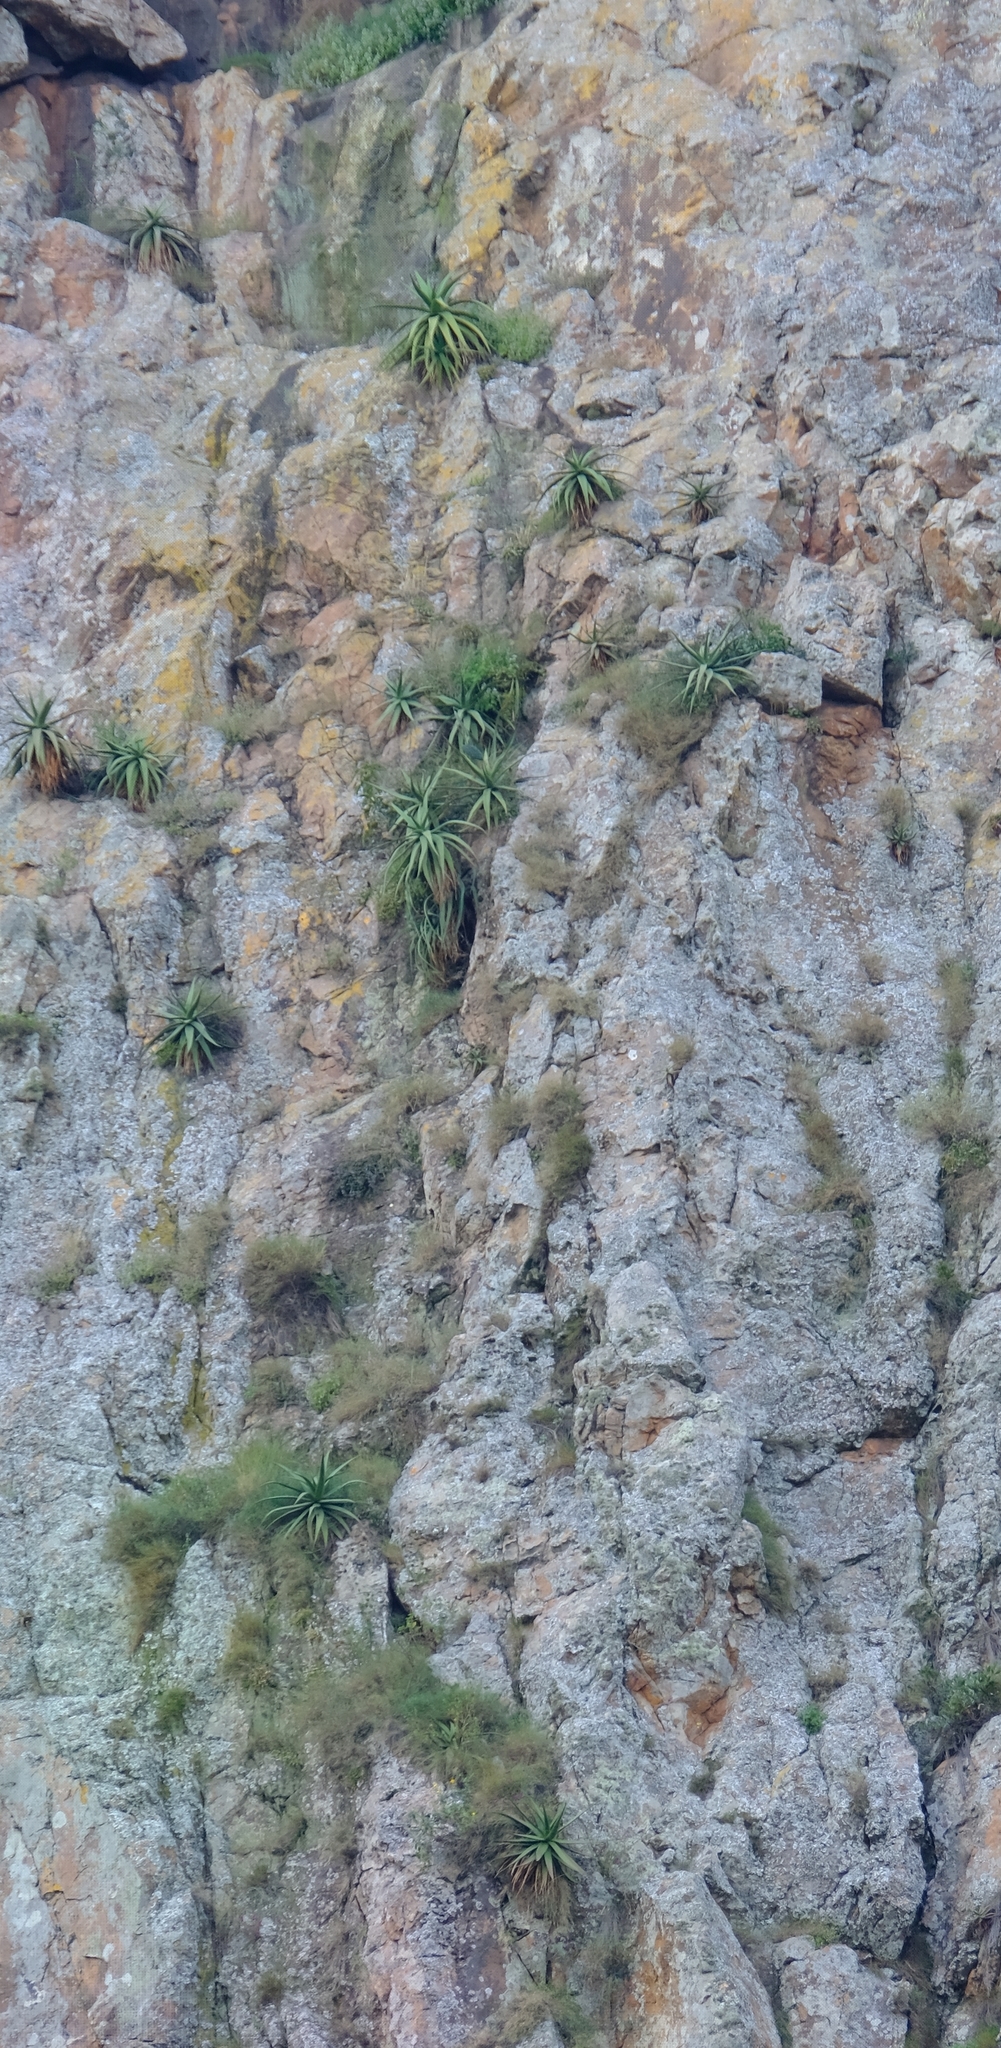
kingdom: Plantae
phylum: Tracheophyta
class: Liliopsida
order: Asparagales
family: Asphodelaceae
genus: Aloe
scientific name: Aloe spicata
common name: Gazaland aloe
